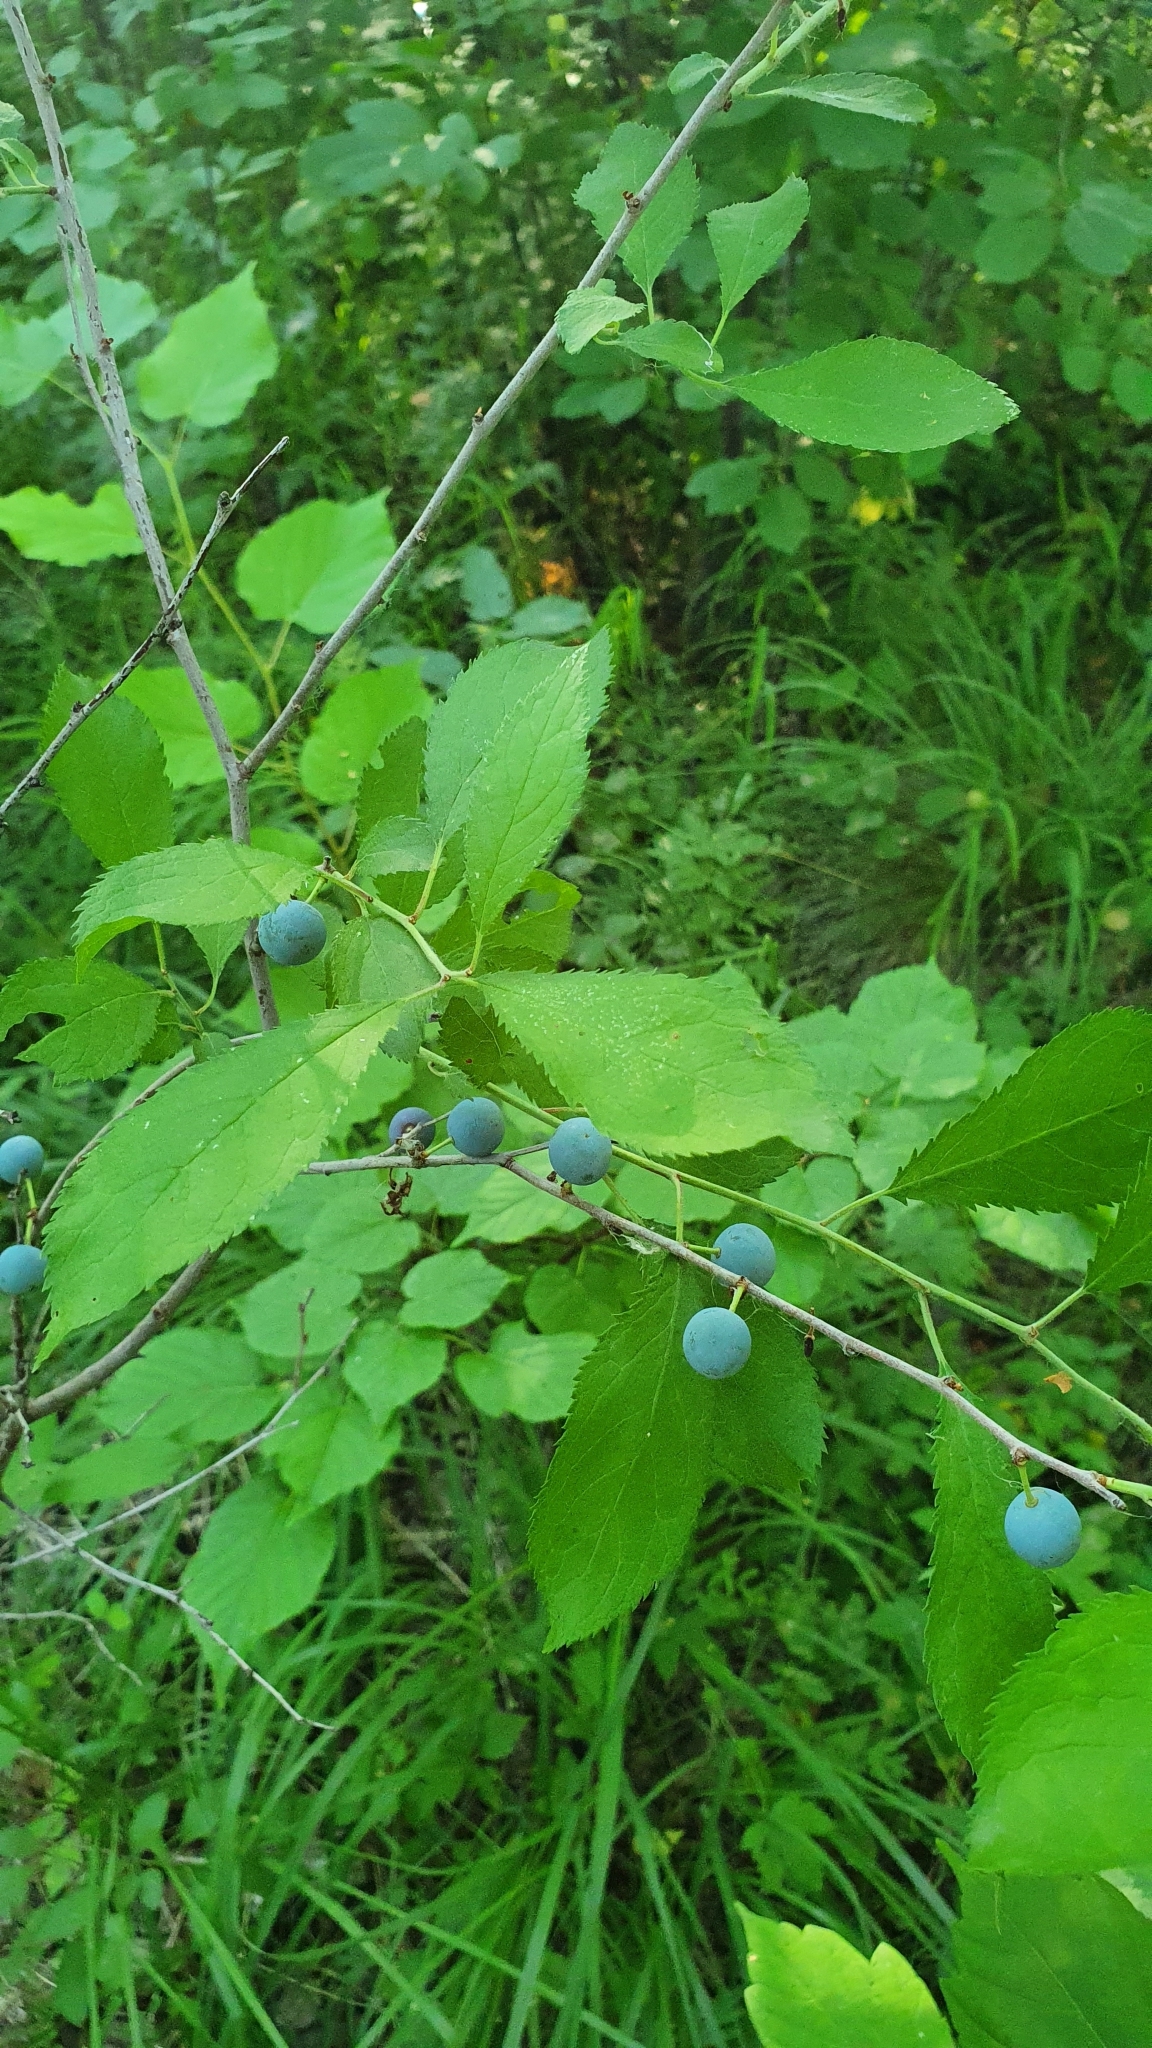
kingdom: Plantae
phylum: Tracheophyta
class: Magnoliopsida
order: Rosales
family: Rosaceae
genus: Prunus
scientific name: Prunus spinosa
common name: Blackthorn
